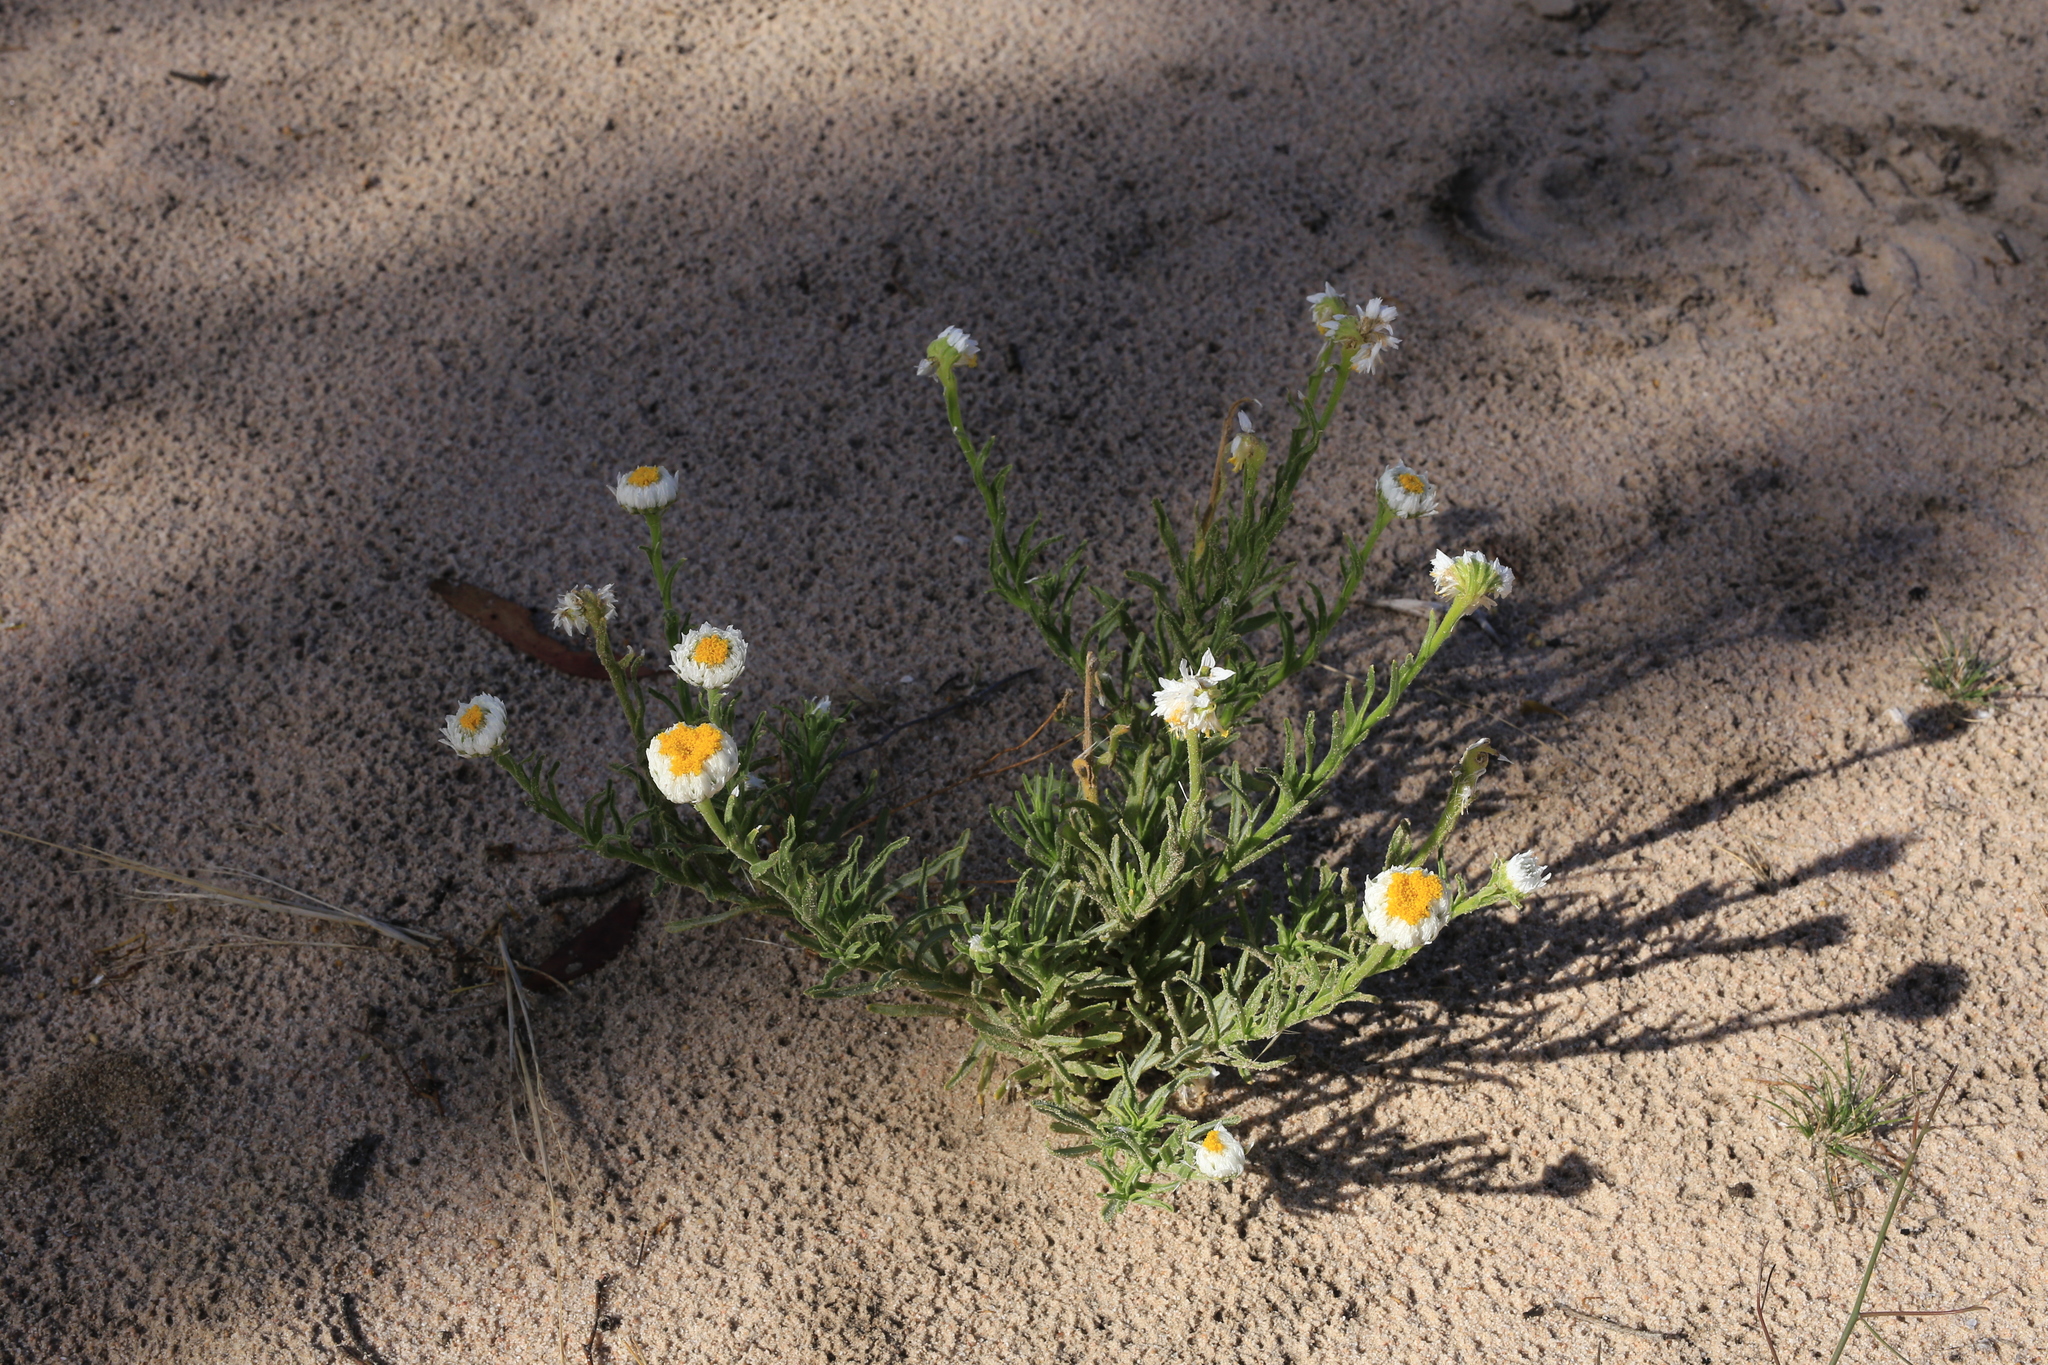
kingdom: Plantae
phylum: Tracheophyta
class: Magnoliopsida
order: Asterales
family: Asteraceae
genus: Polycalymma
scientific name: Polycalymma stuartii
